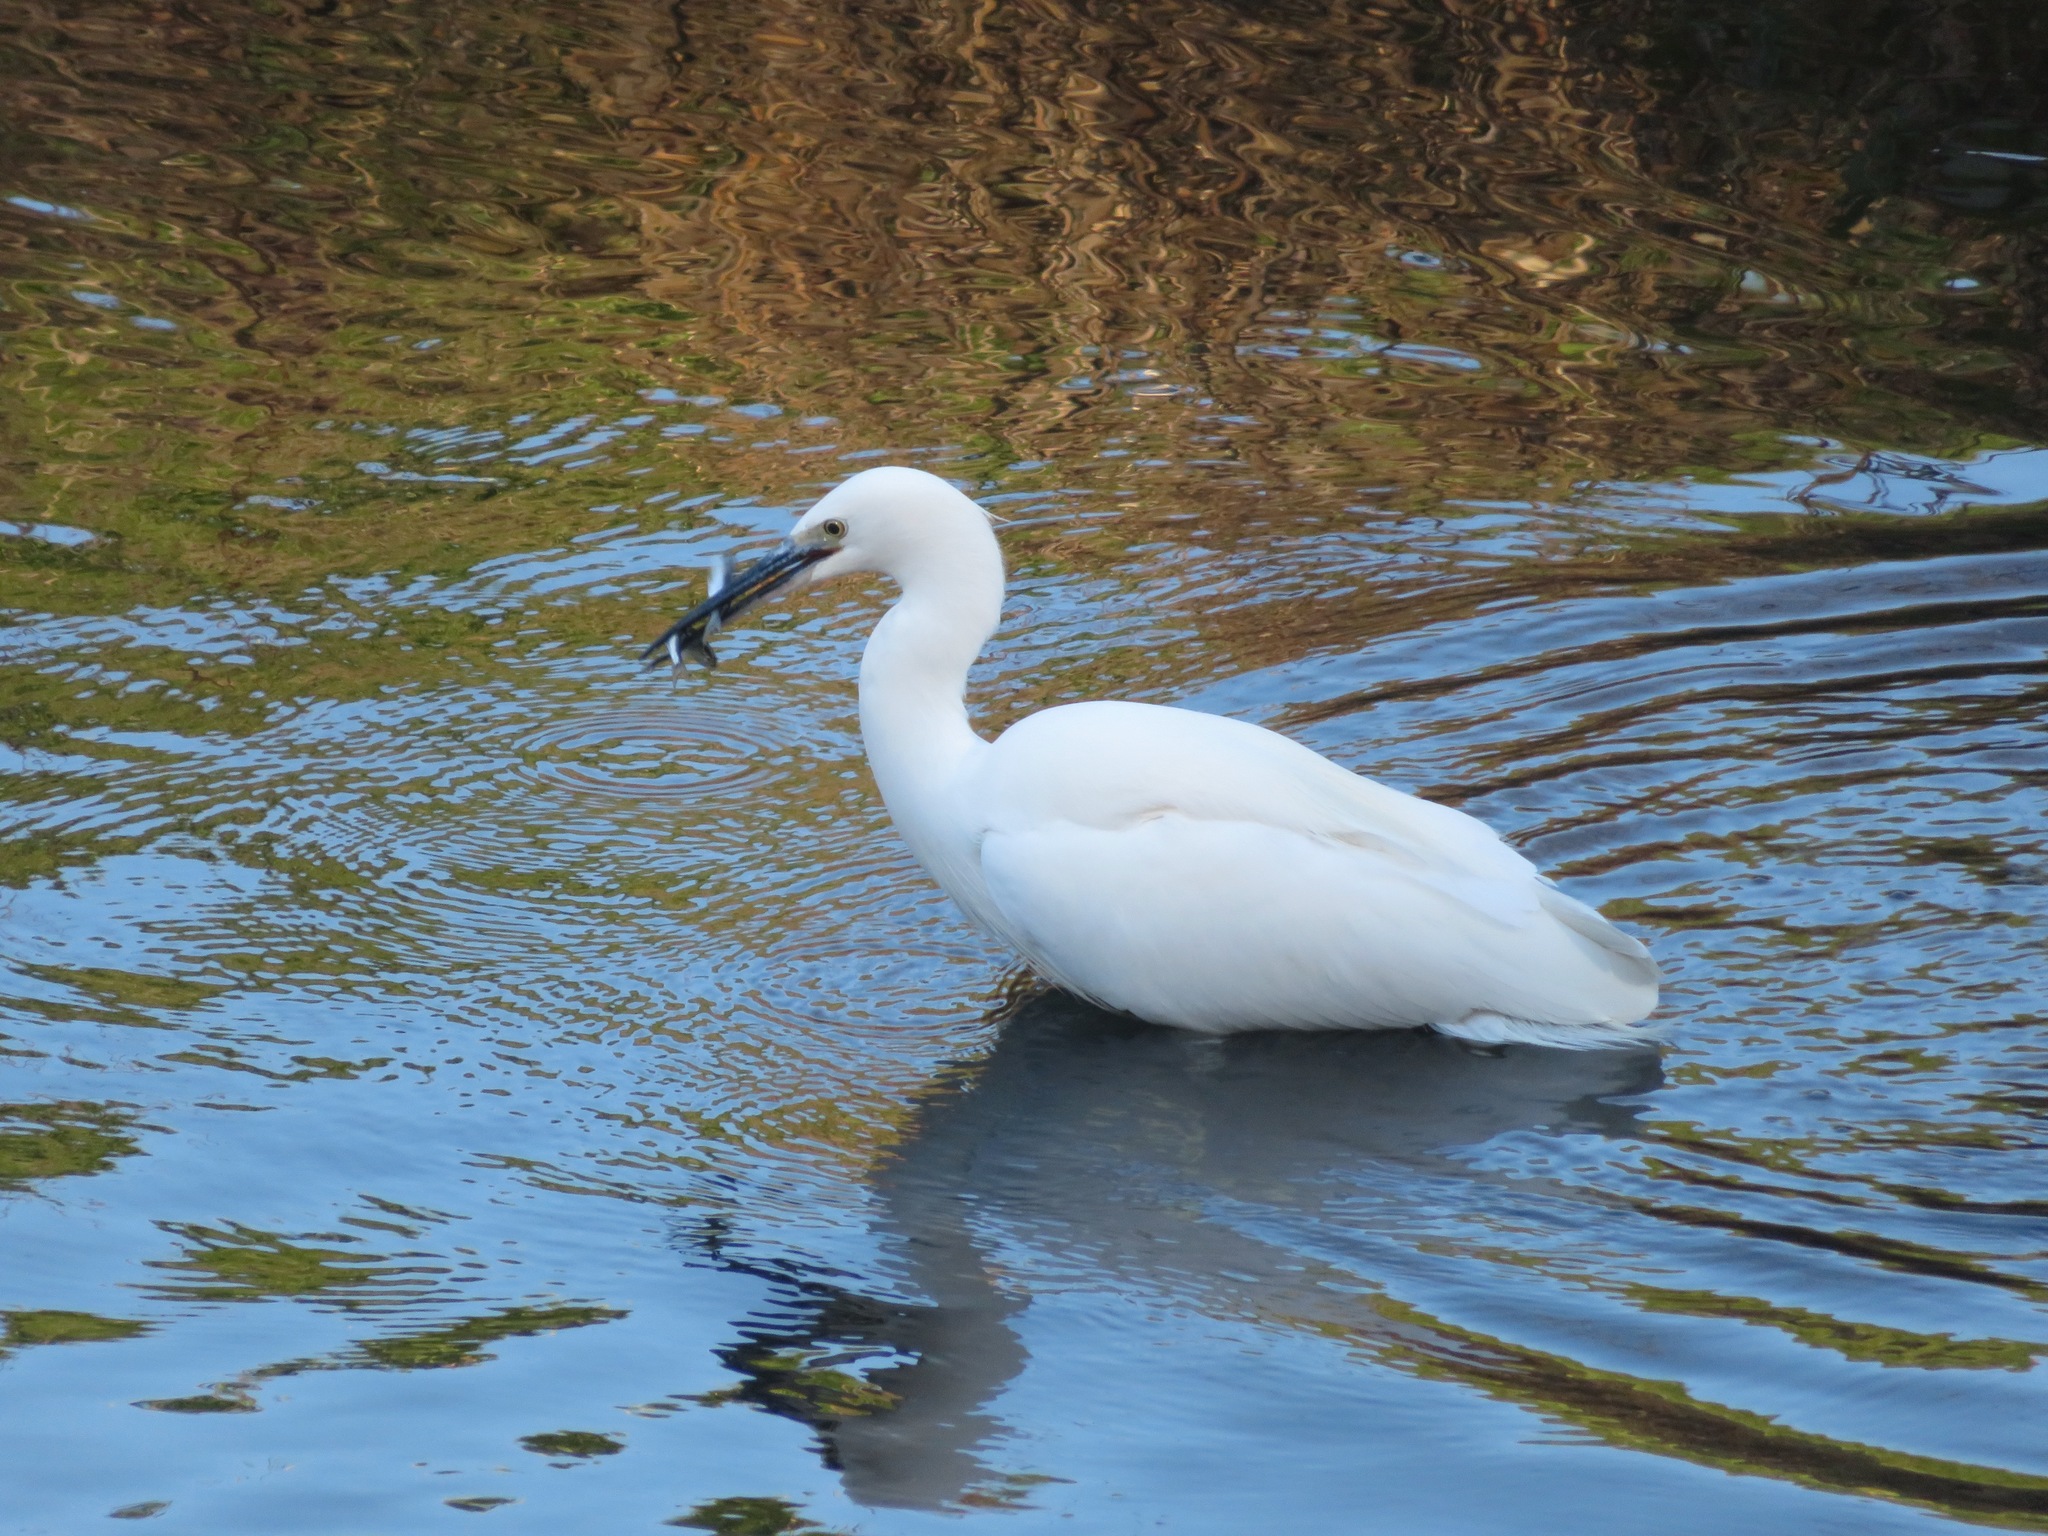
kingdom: Animalia
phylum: Chordata
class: Aves
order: Pelecaniformes
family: Ardeidae
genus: Egretta
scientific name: Egretta garzetta
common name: Little egret
